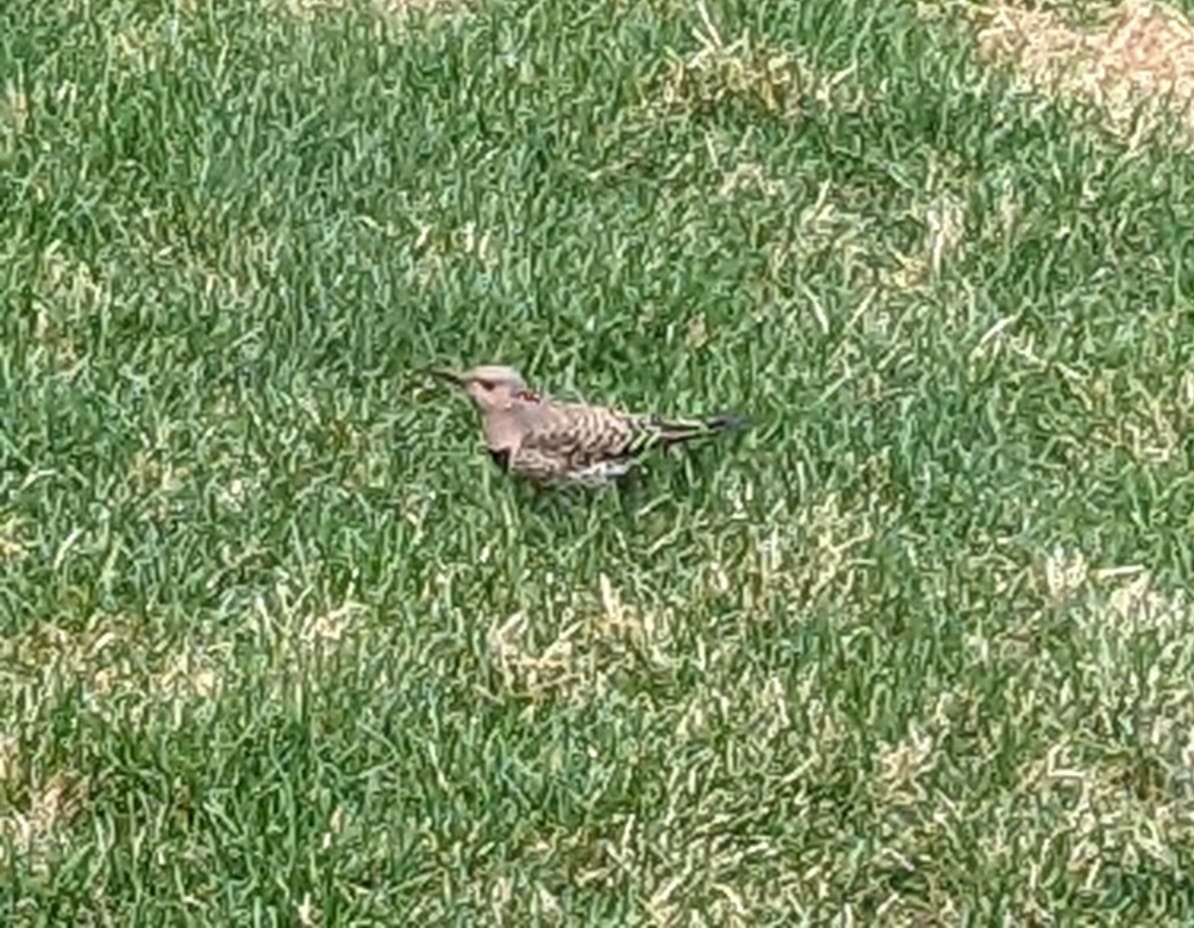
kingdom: Animalia
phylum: Chordata
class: Aves
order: Piciformes
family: Picidae
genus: Colaptes
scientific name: Colaptes auratus
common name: Northern flicker
